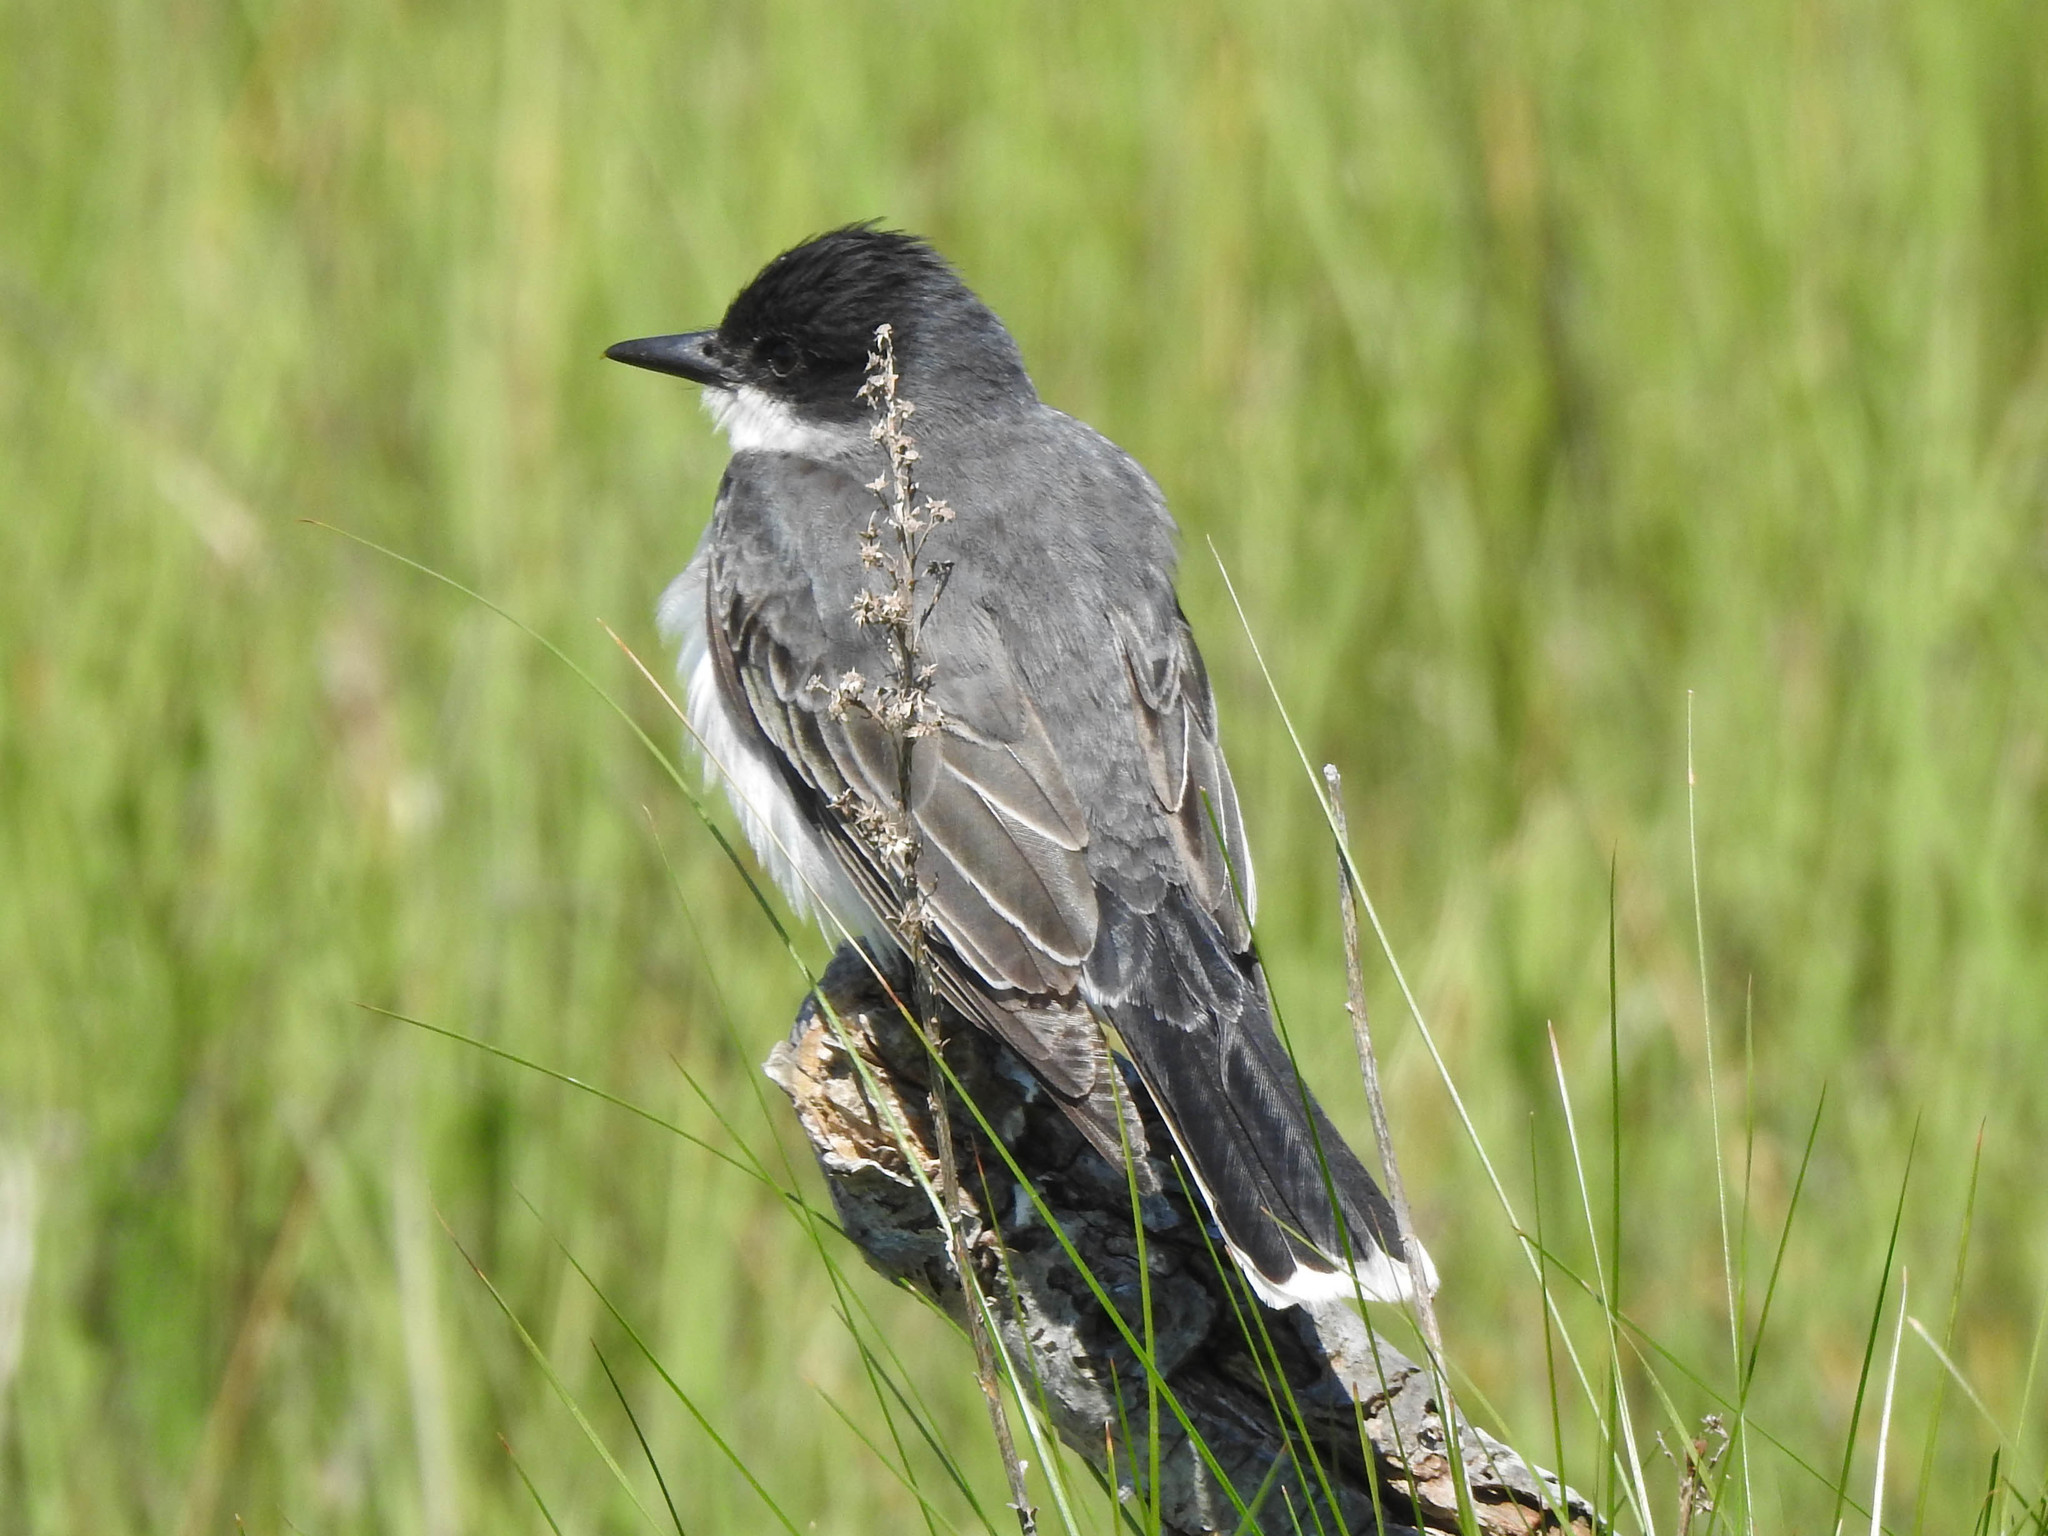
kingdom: Animalia
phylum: Chordata
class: Aves
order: Passeriformes
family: Tyrannidae
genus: Tyrannus
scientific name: Tyrannus tyrannus
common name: Eastern kingbird
